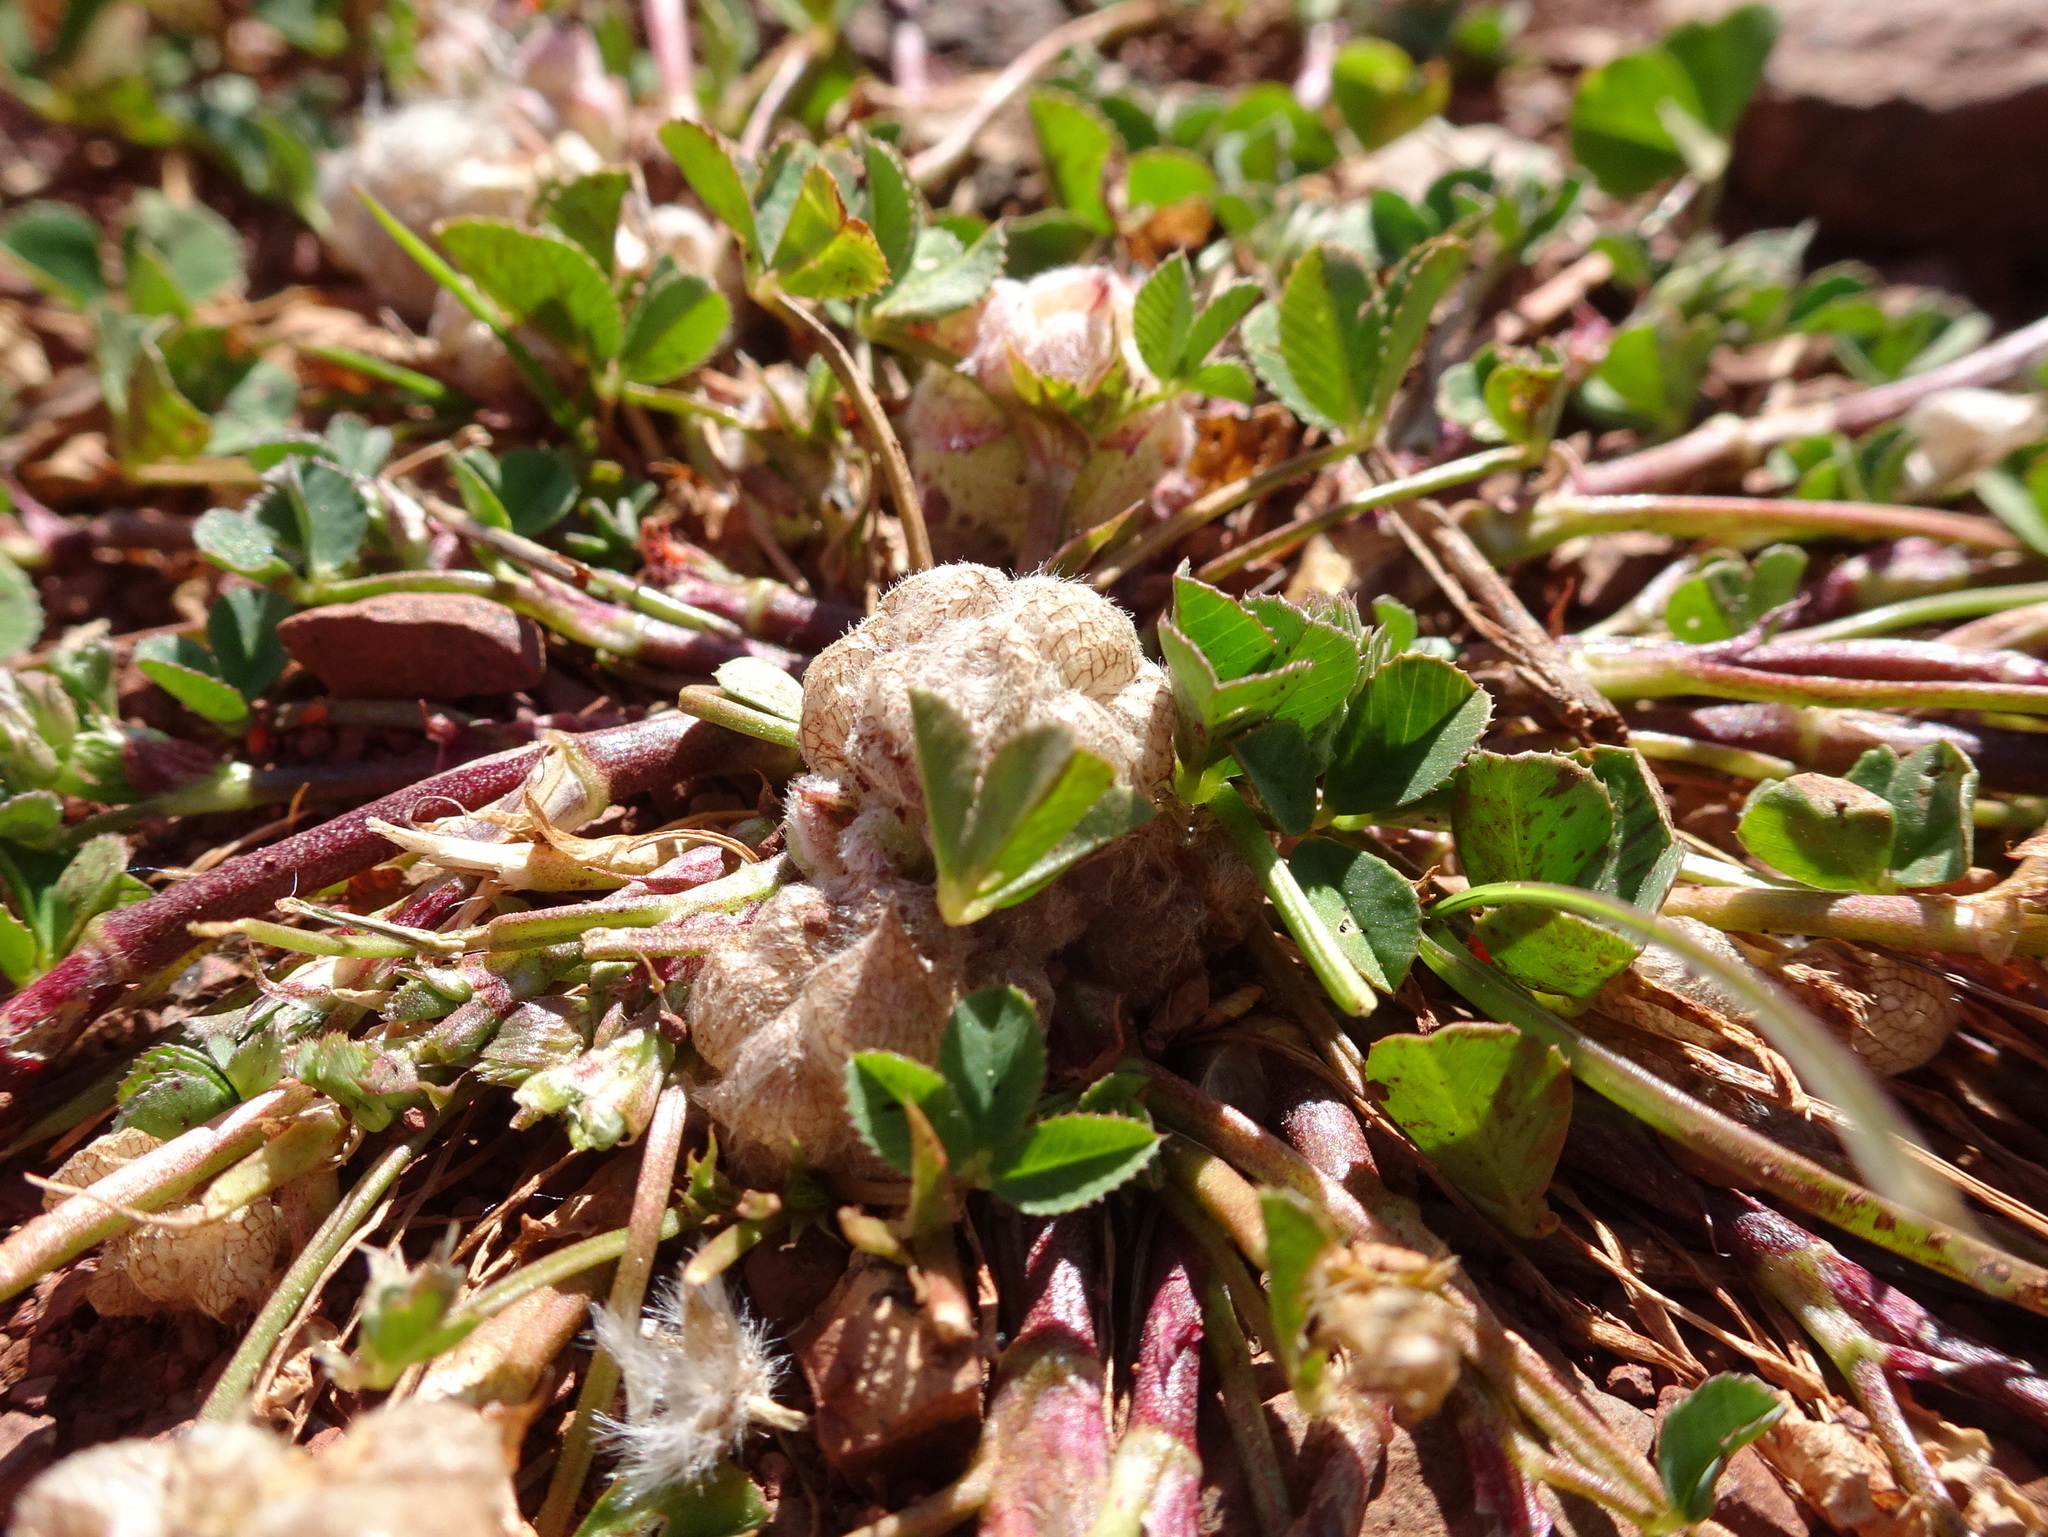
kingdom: Plantae
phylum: Tracheophyta
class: Magnoliopsida
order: Fabales
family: Fabaceae
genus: Trifolium
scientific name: Trifolium tomentosum
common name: Woolly clover
